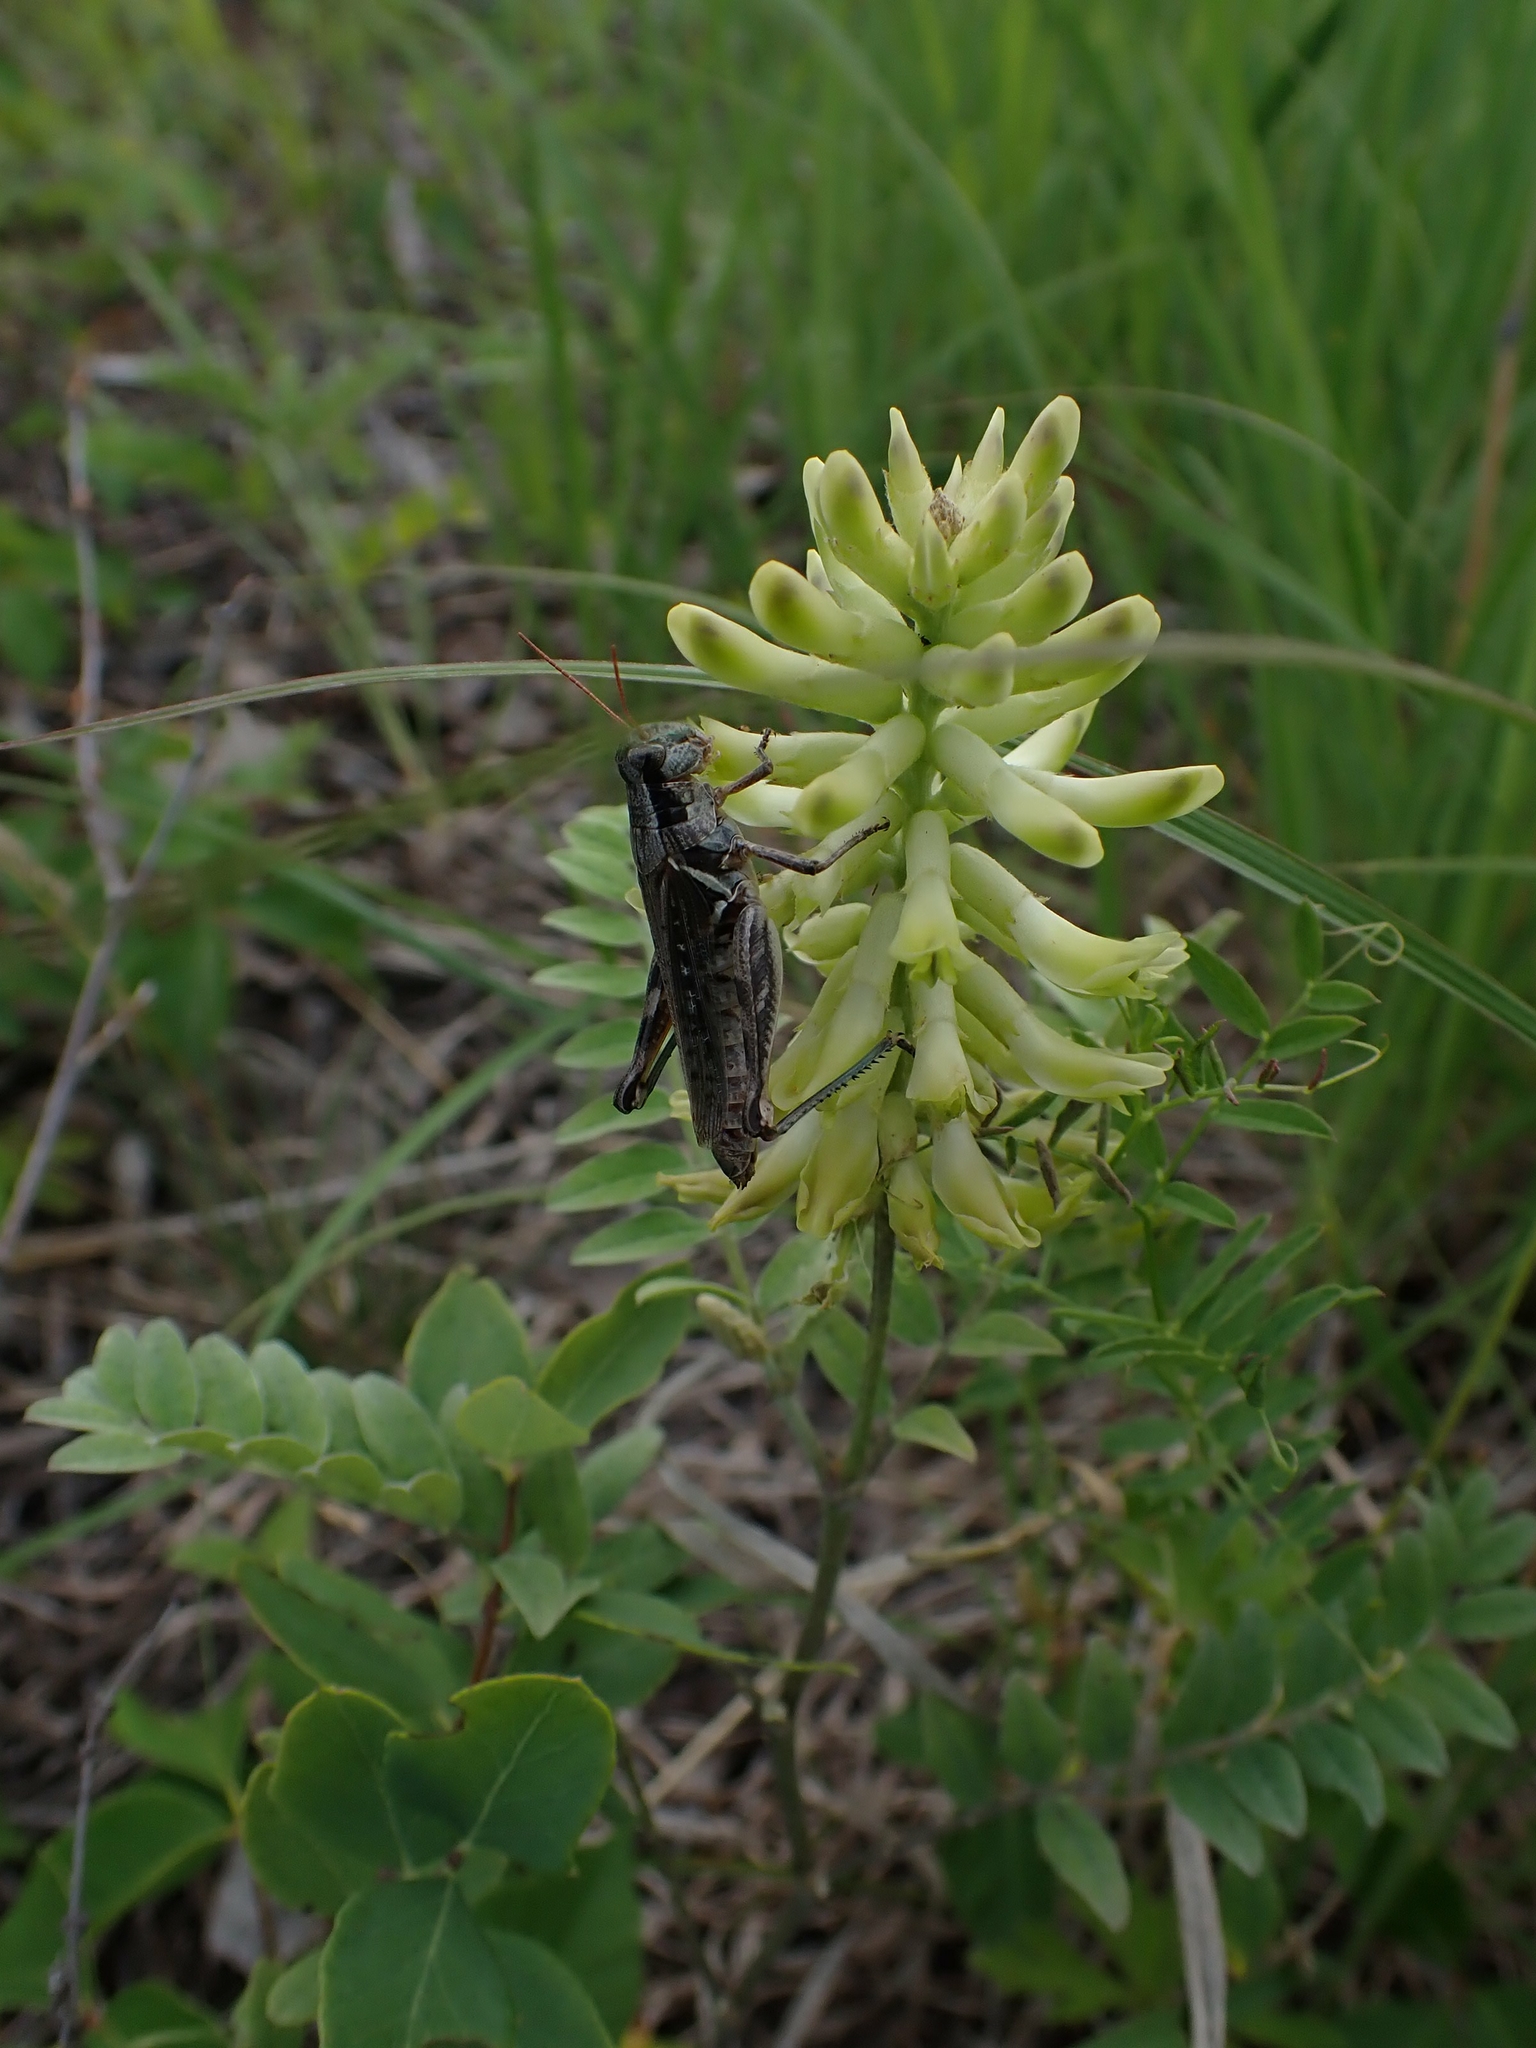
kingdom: Plantae
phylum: Tracheophyta
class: Magnoliopsida
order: Fabales
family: Fabaceae
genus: Astragalus
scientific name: Astragalus canadensis
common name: Canada milk-vetch
